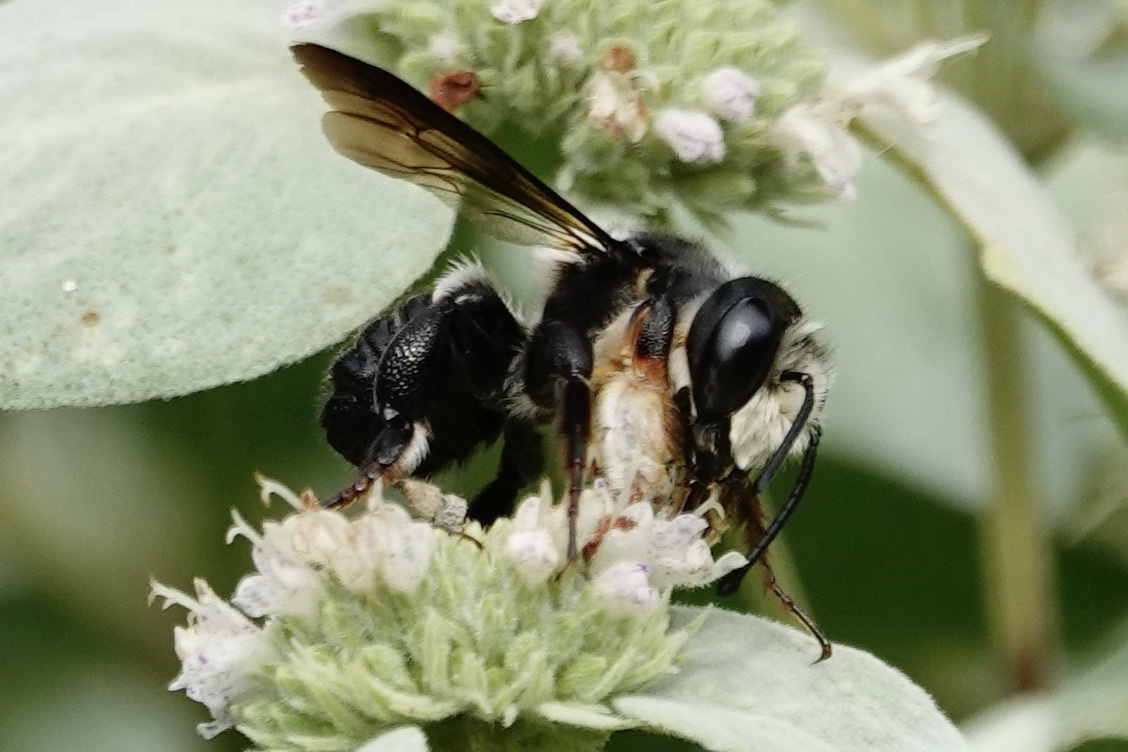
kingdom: Animalia
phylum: Arthropoda
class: Insecta
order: Hymenoptera
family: Megachilidae
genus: Megachile
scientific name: Megachile xylocopoides
